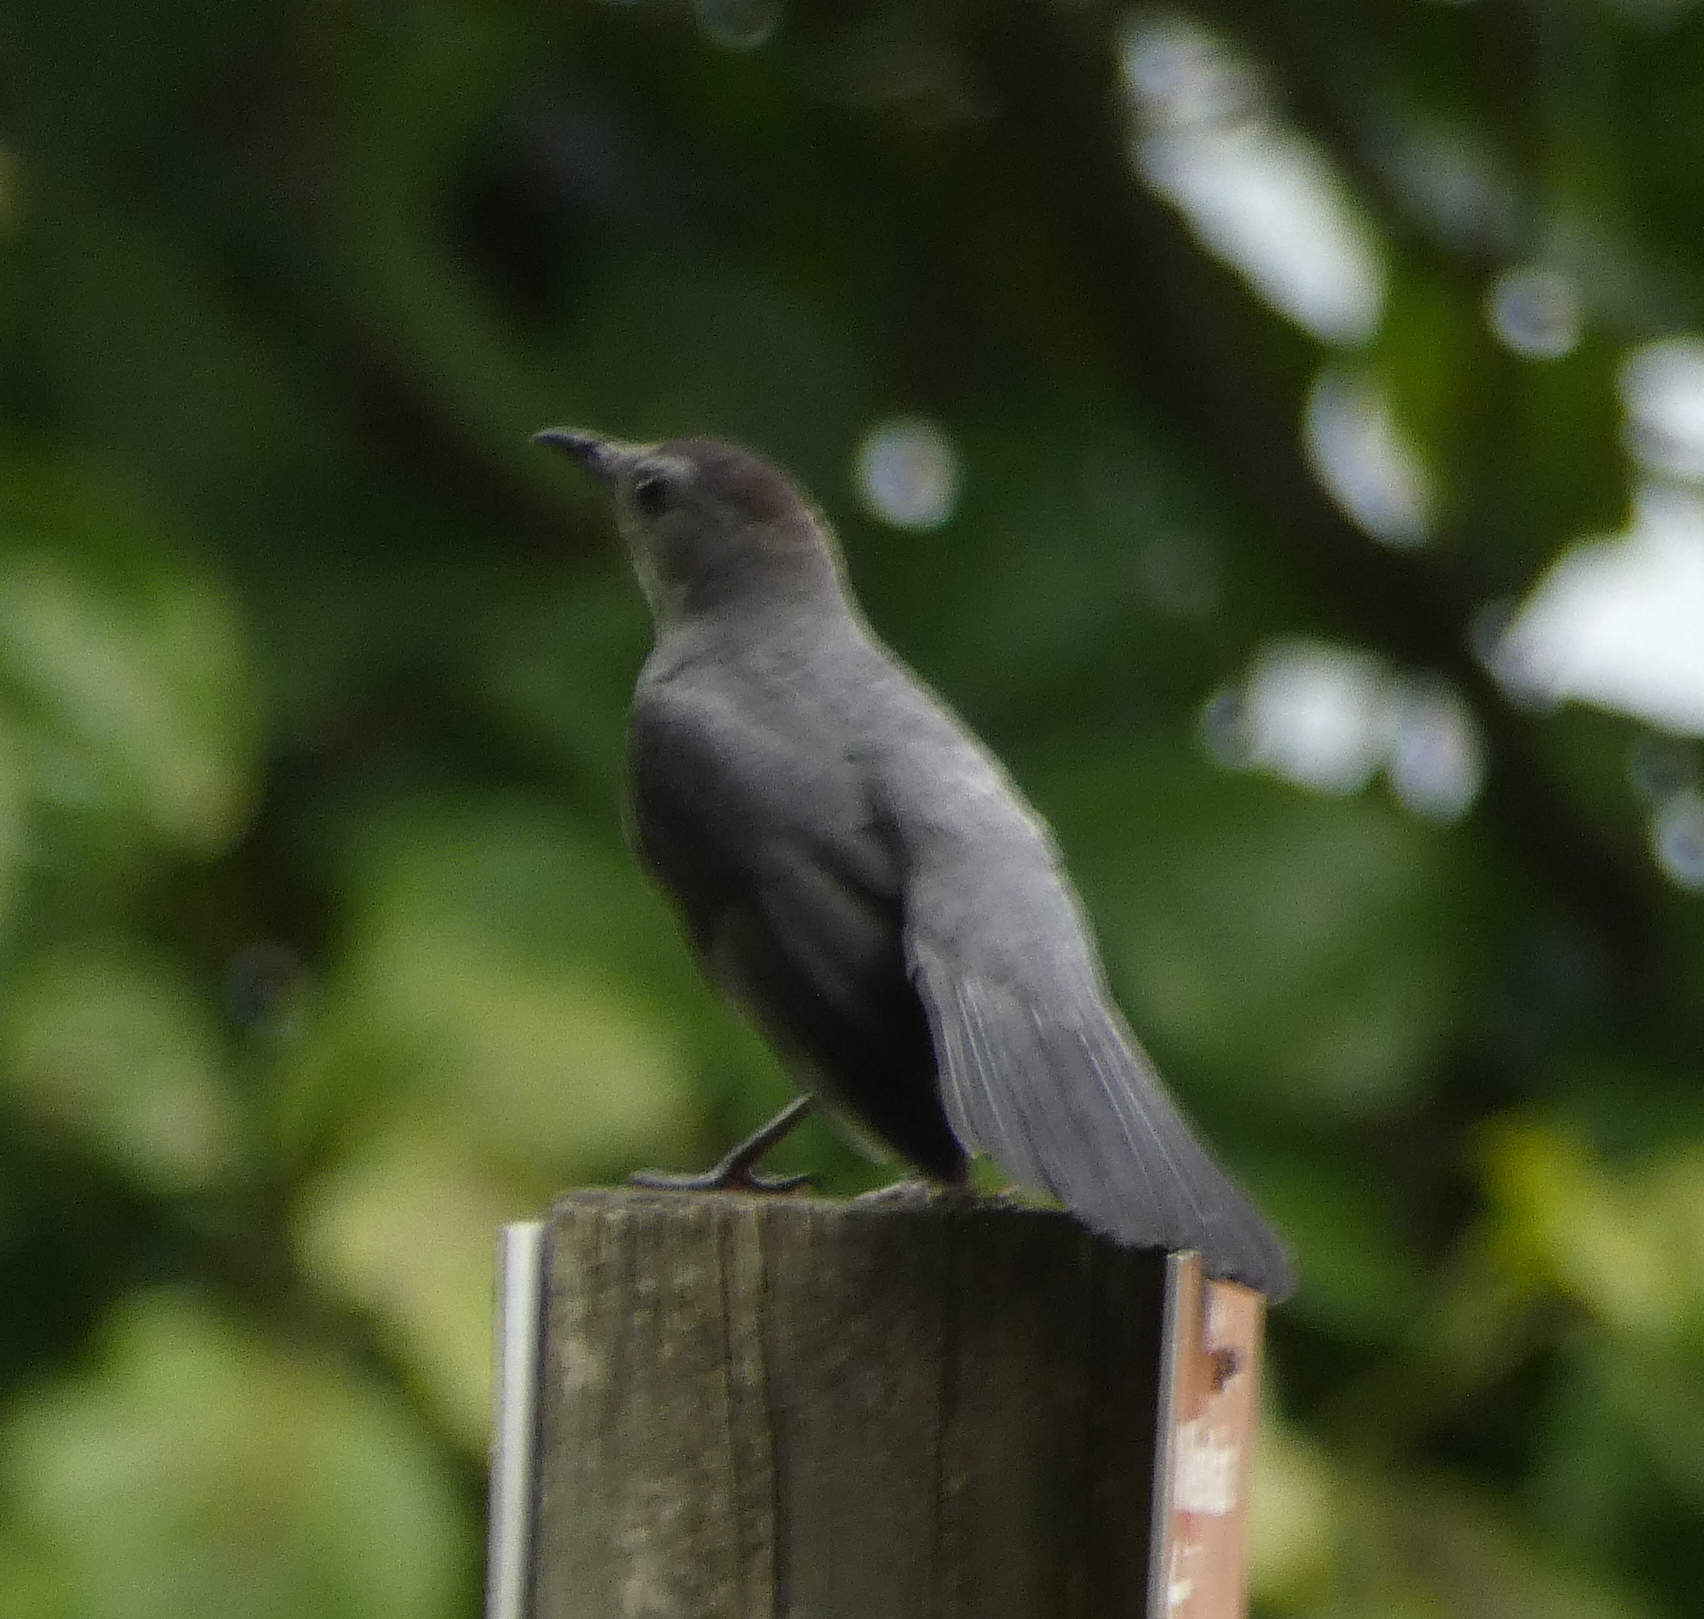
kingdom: Animalia
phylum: Chordata
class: Aves
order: Passeriformes
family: Mimidae
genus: Dumetella
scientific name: Dumetella carolinensis
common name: Gray catbird
